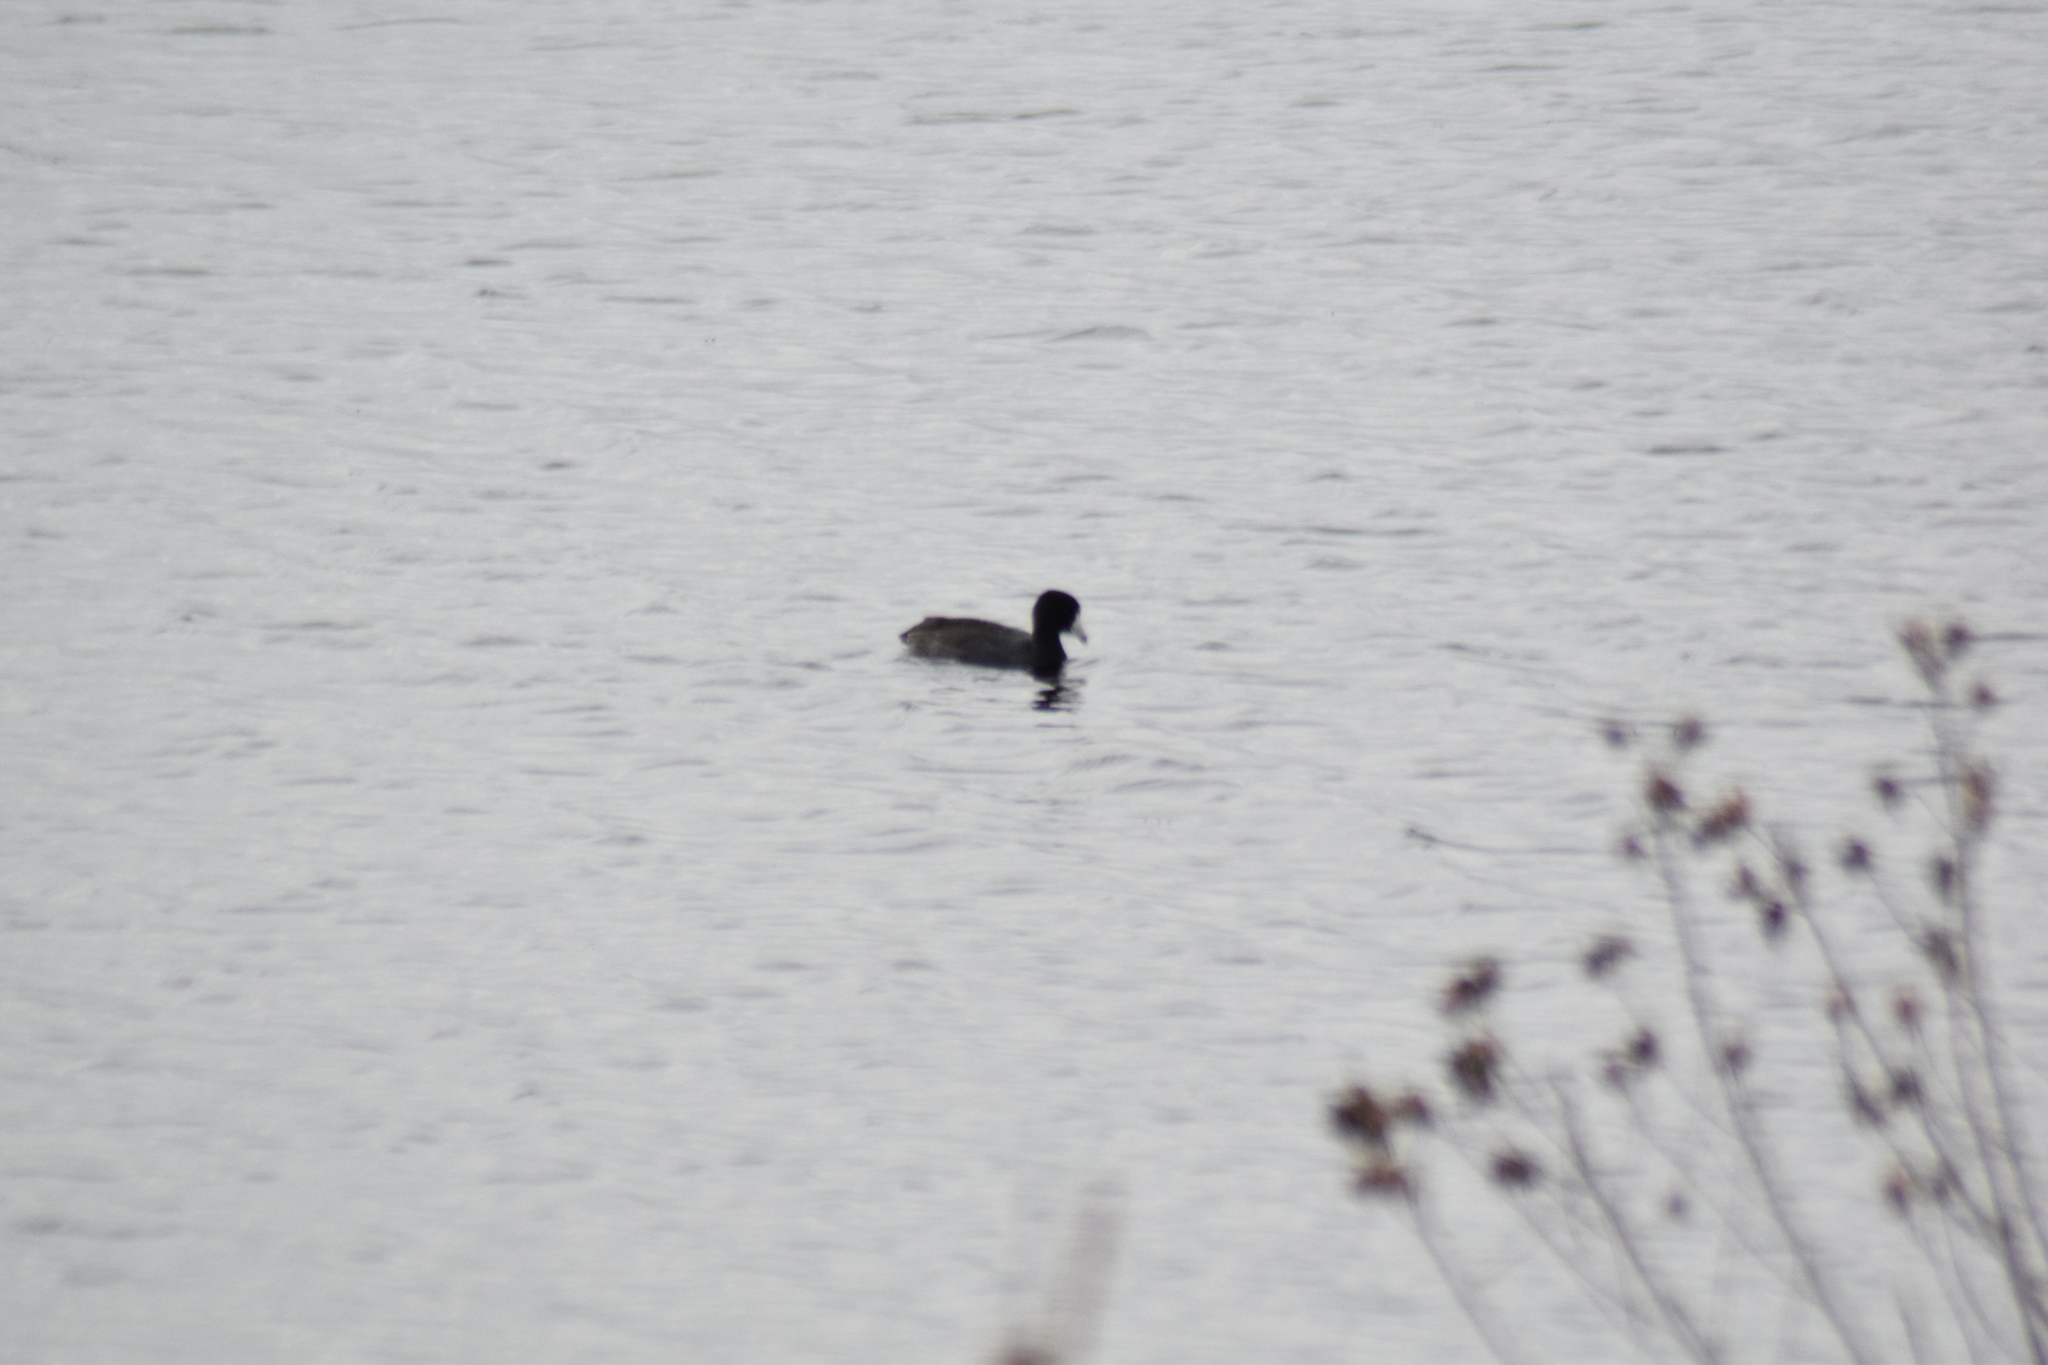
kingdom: Animalia
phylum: Chordata
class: Aves
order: Gruiformes
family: Rallidae
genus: Fulica
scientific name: Fulica americana
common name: American coot
